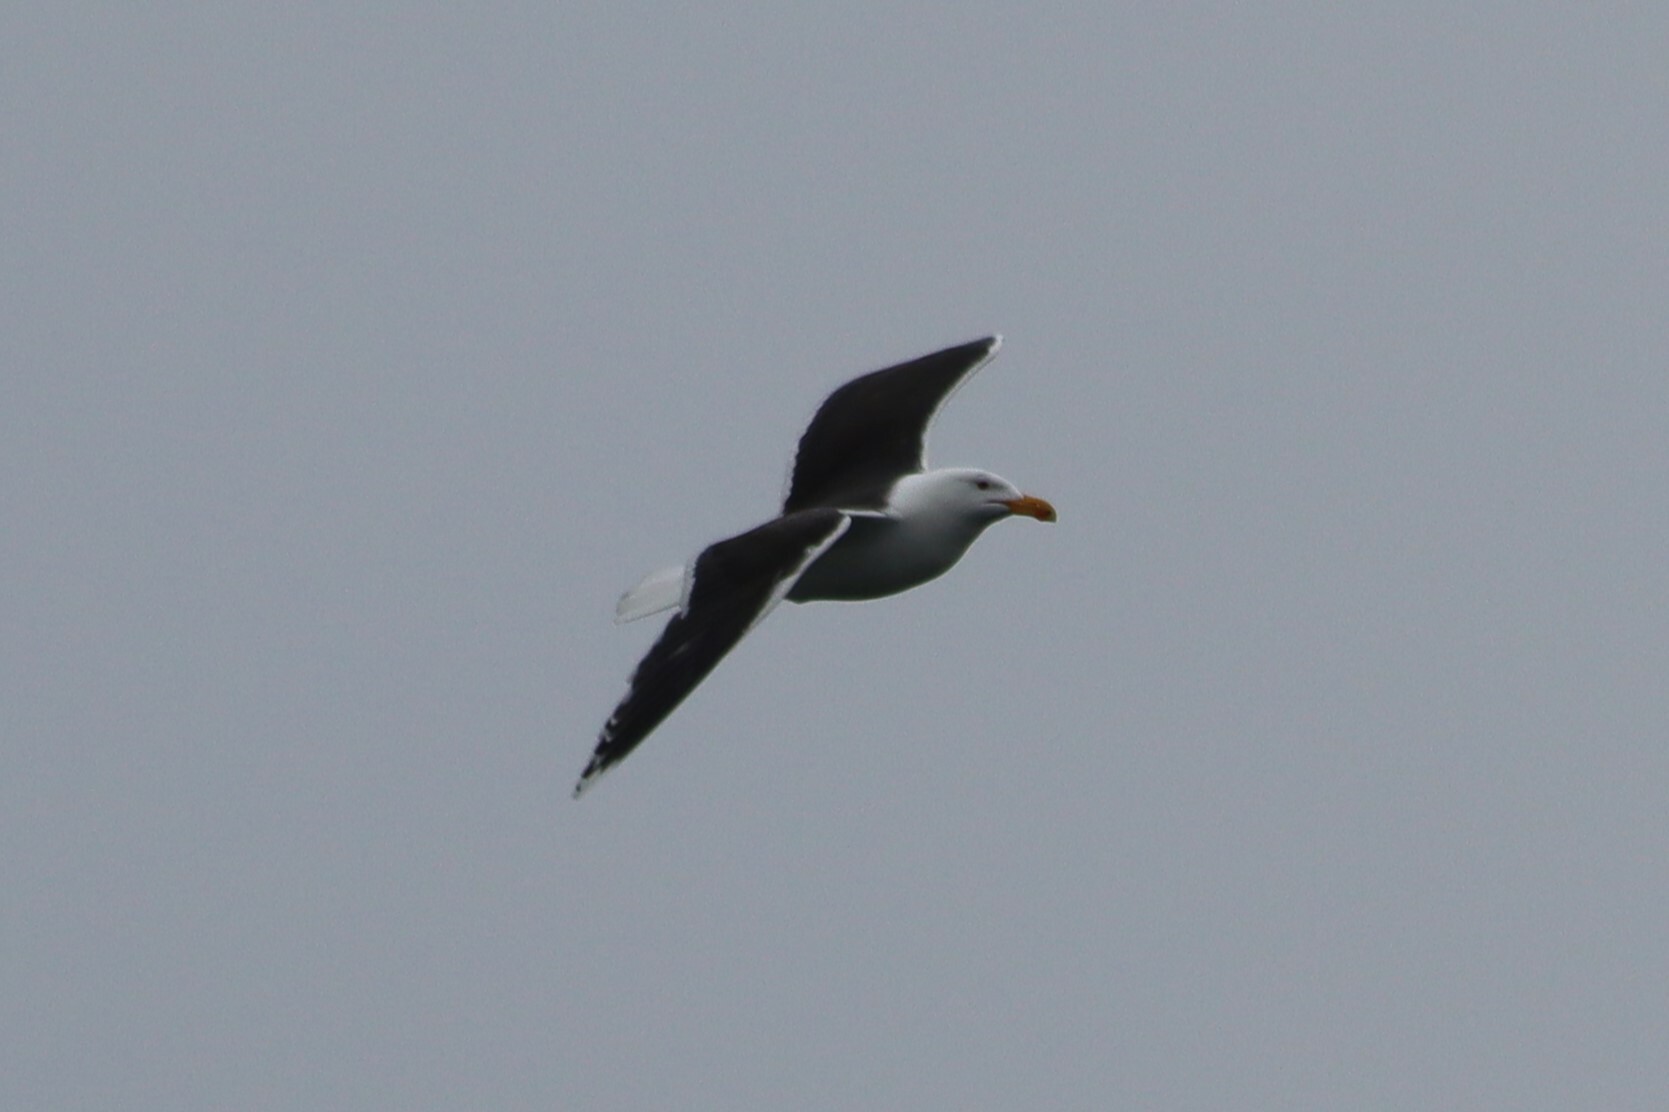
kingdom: Animalia
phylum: Chordata
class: Aves
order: Charadriiformes
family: Laridae
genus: Larus
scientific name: Larus marinus
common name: Great black-backed gull
